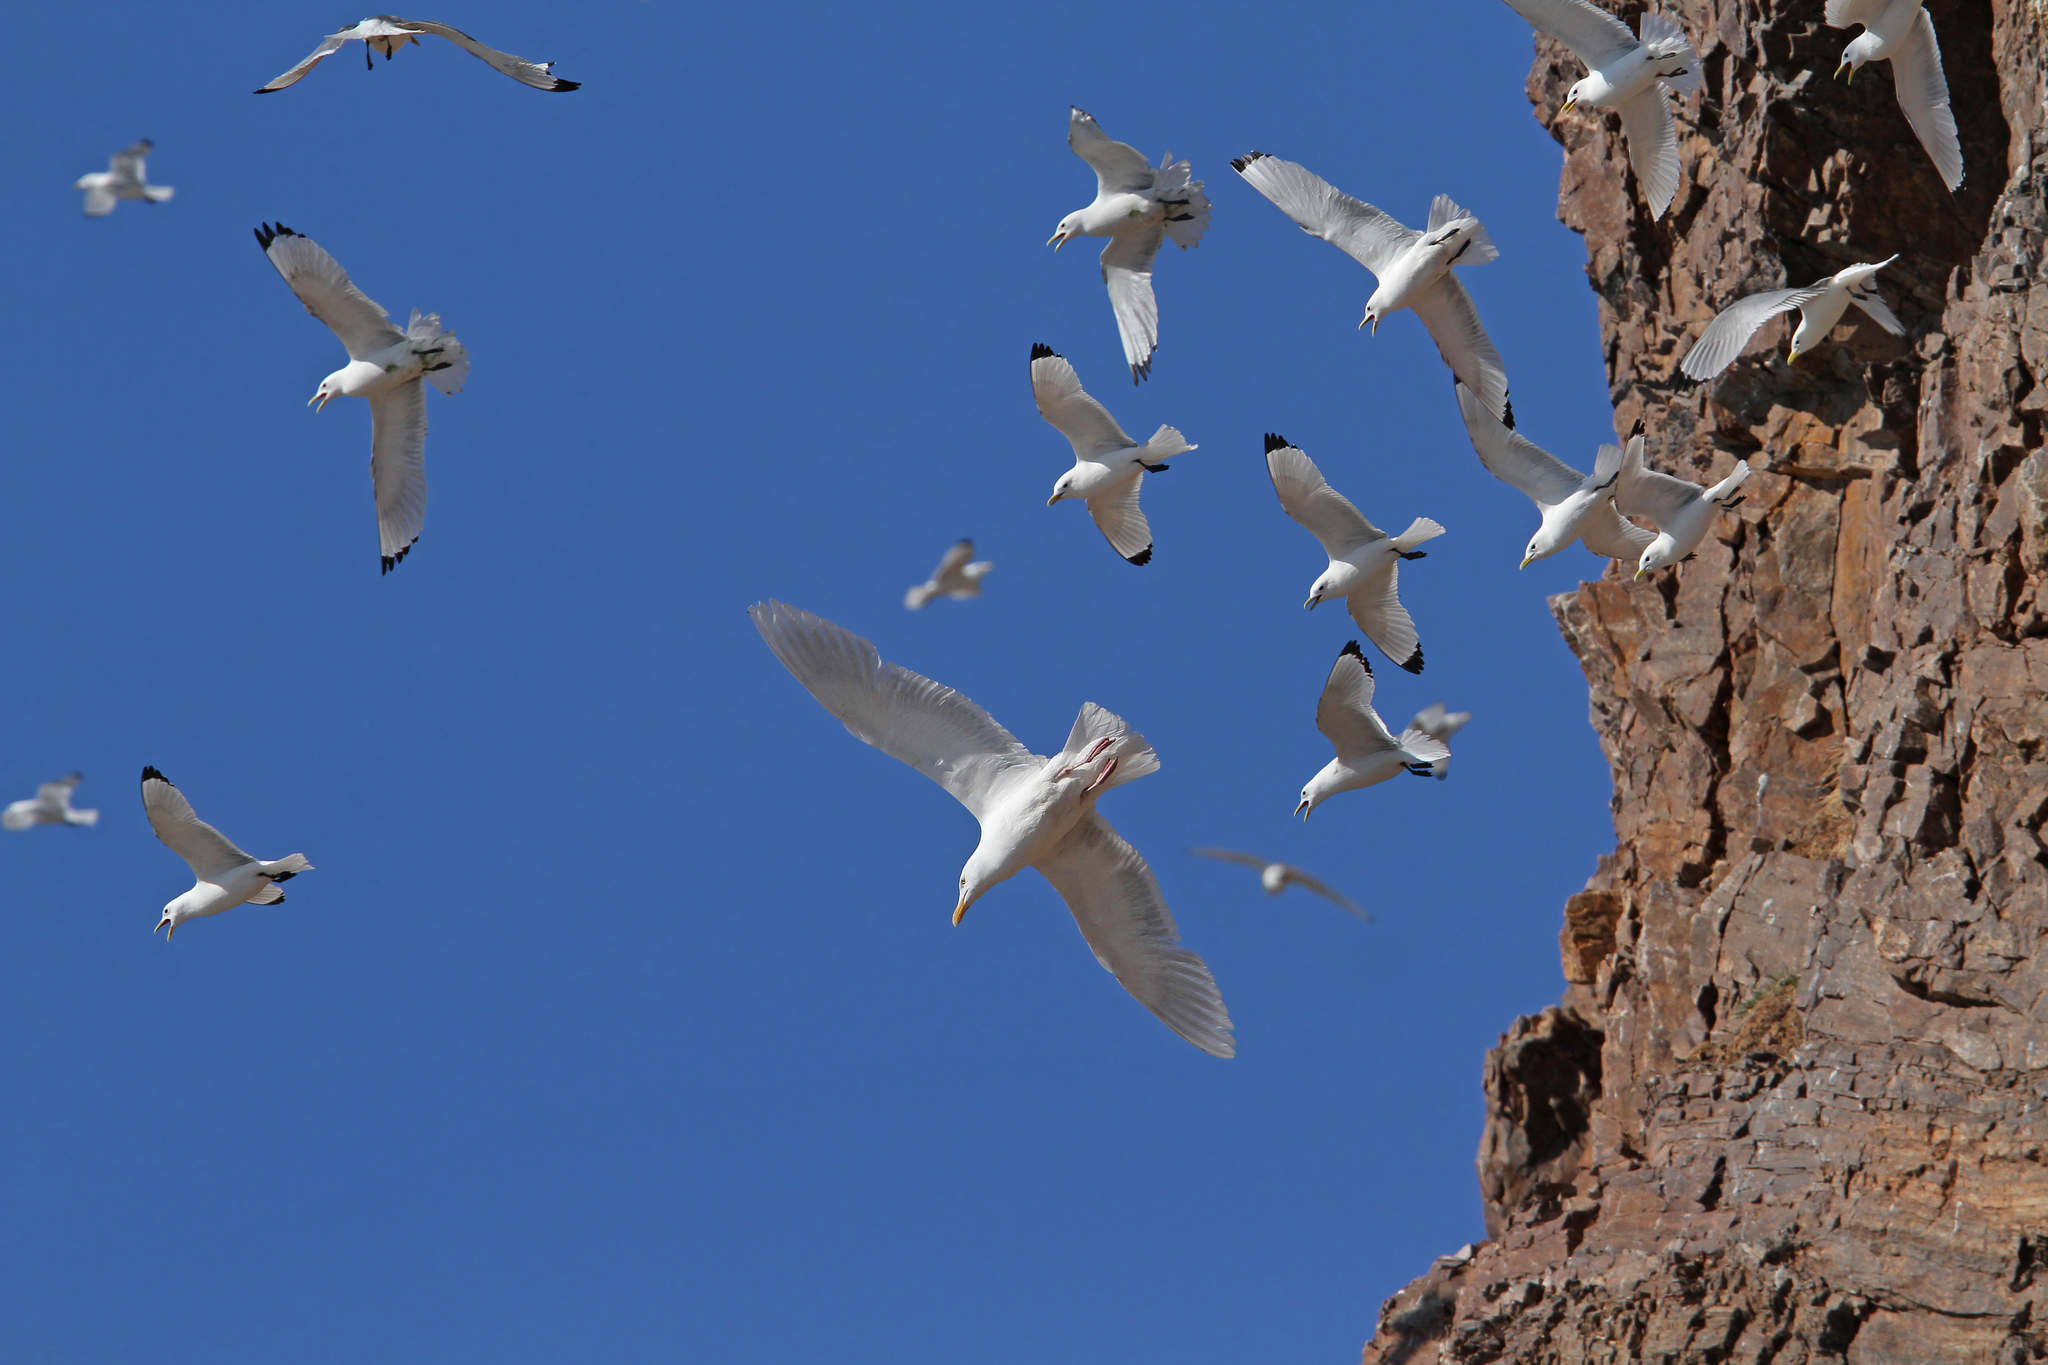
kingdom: Animalia
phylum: Chordata
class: Aves
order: Charadriiformes
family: Laridae
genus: Larus
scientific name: Larus hyperboreus
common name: Glaucous gull
